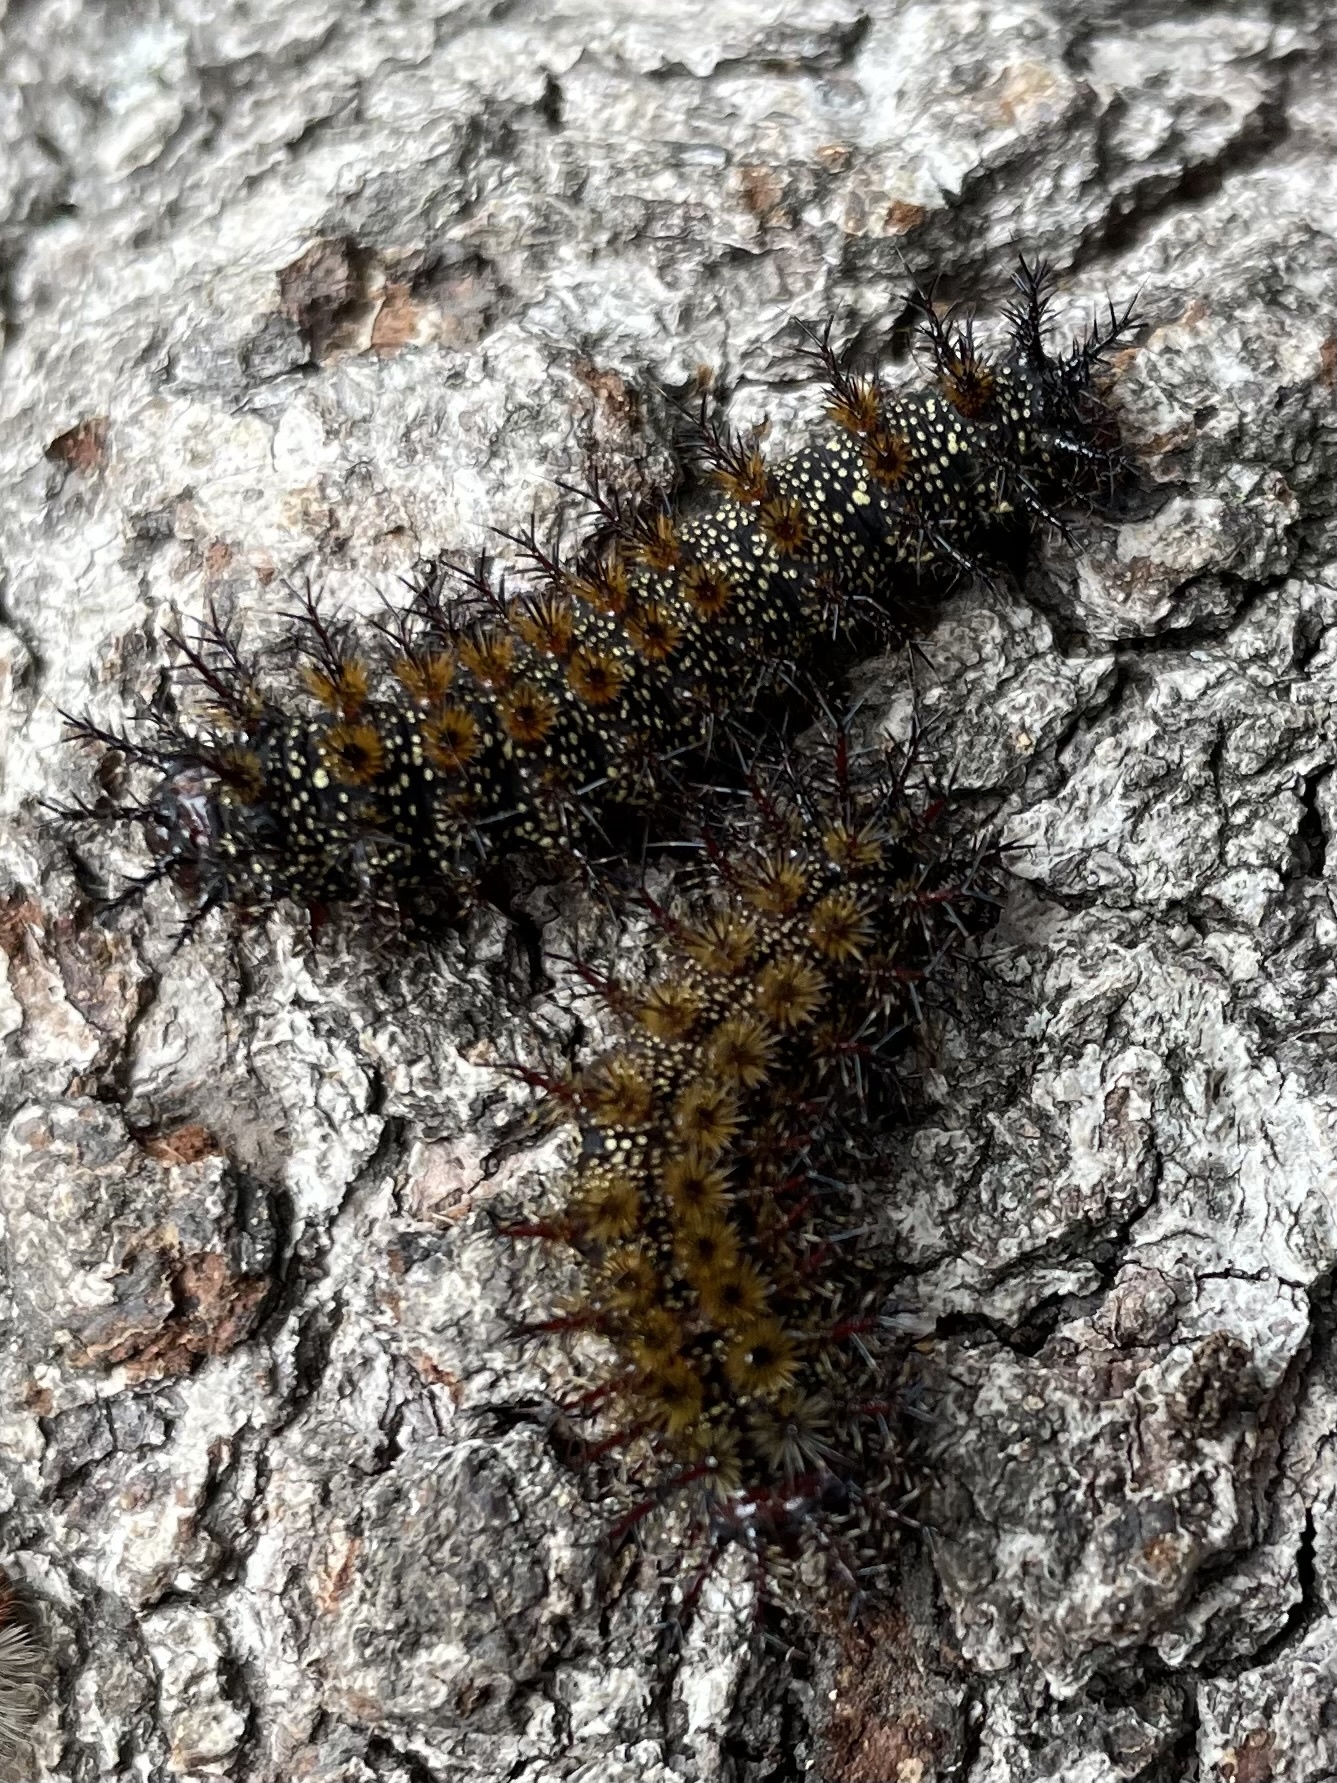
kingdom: Animalia
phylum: Arthropoda
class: Insecta
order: Lepidoptera
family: Saturniidae
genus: Hemileuca
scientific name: Hemileuca maia
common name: Eastern buckmoth
